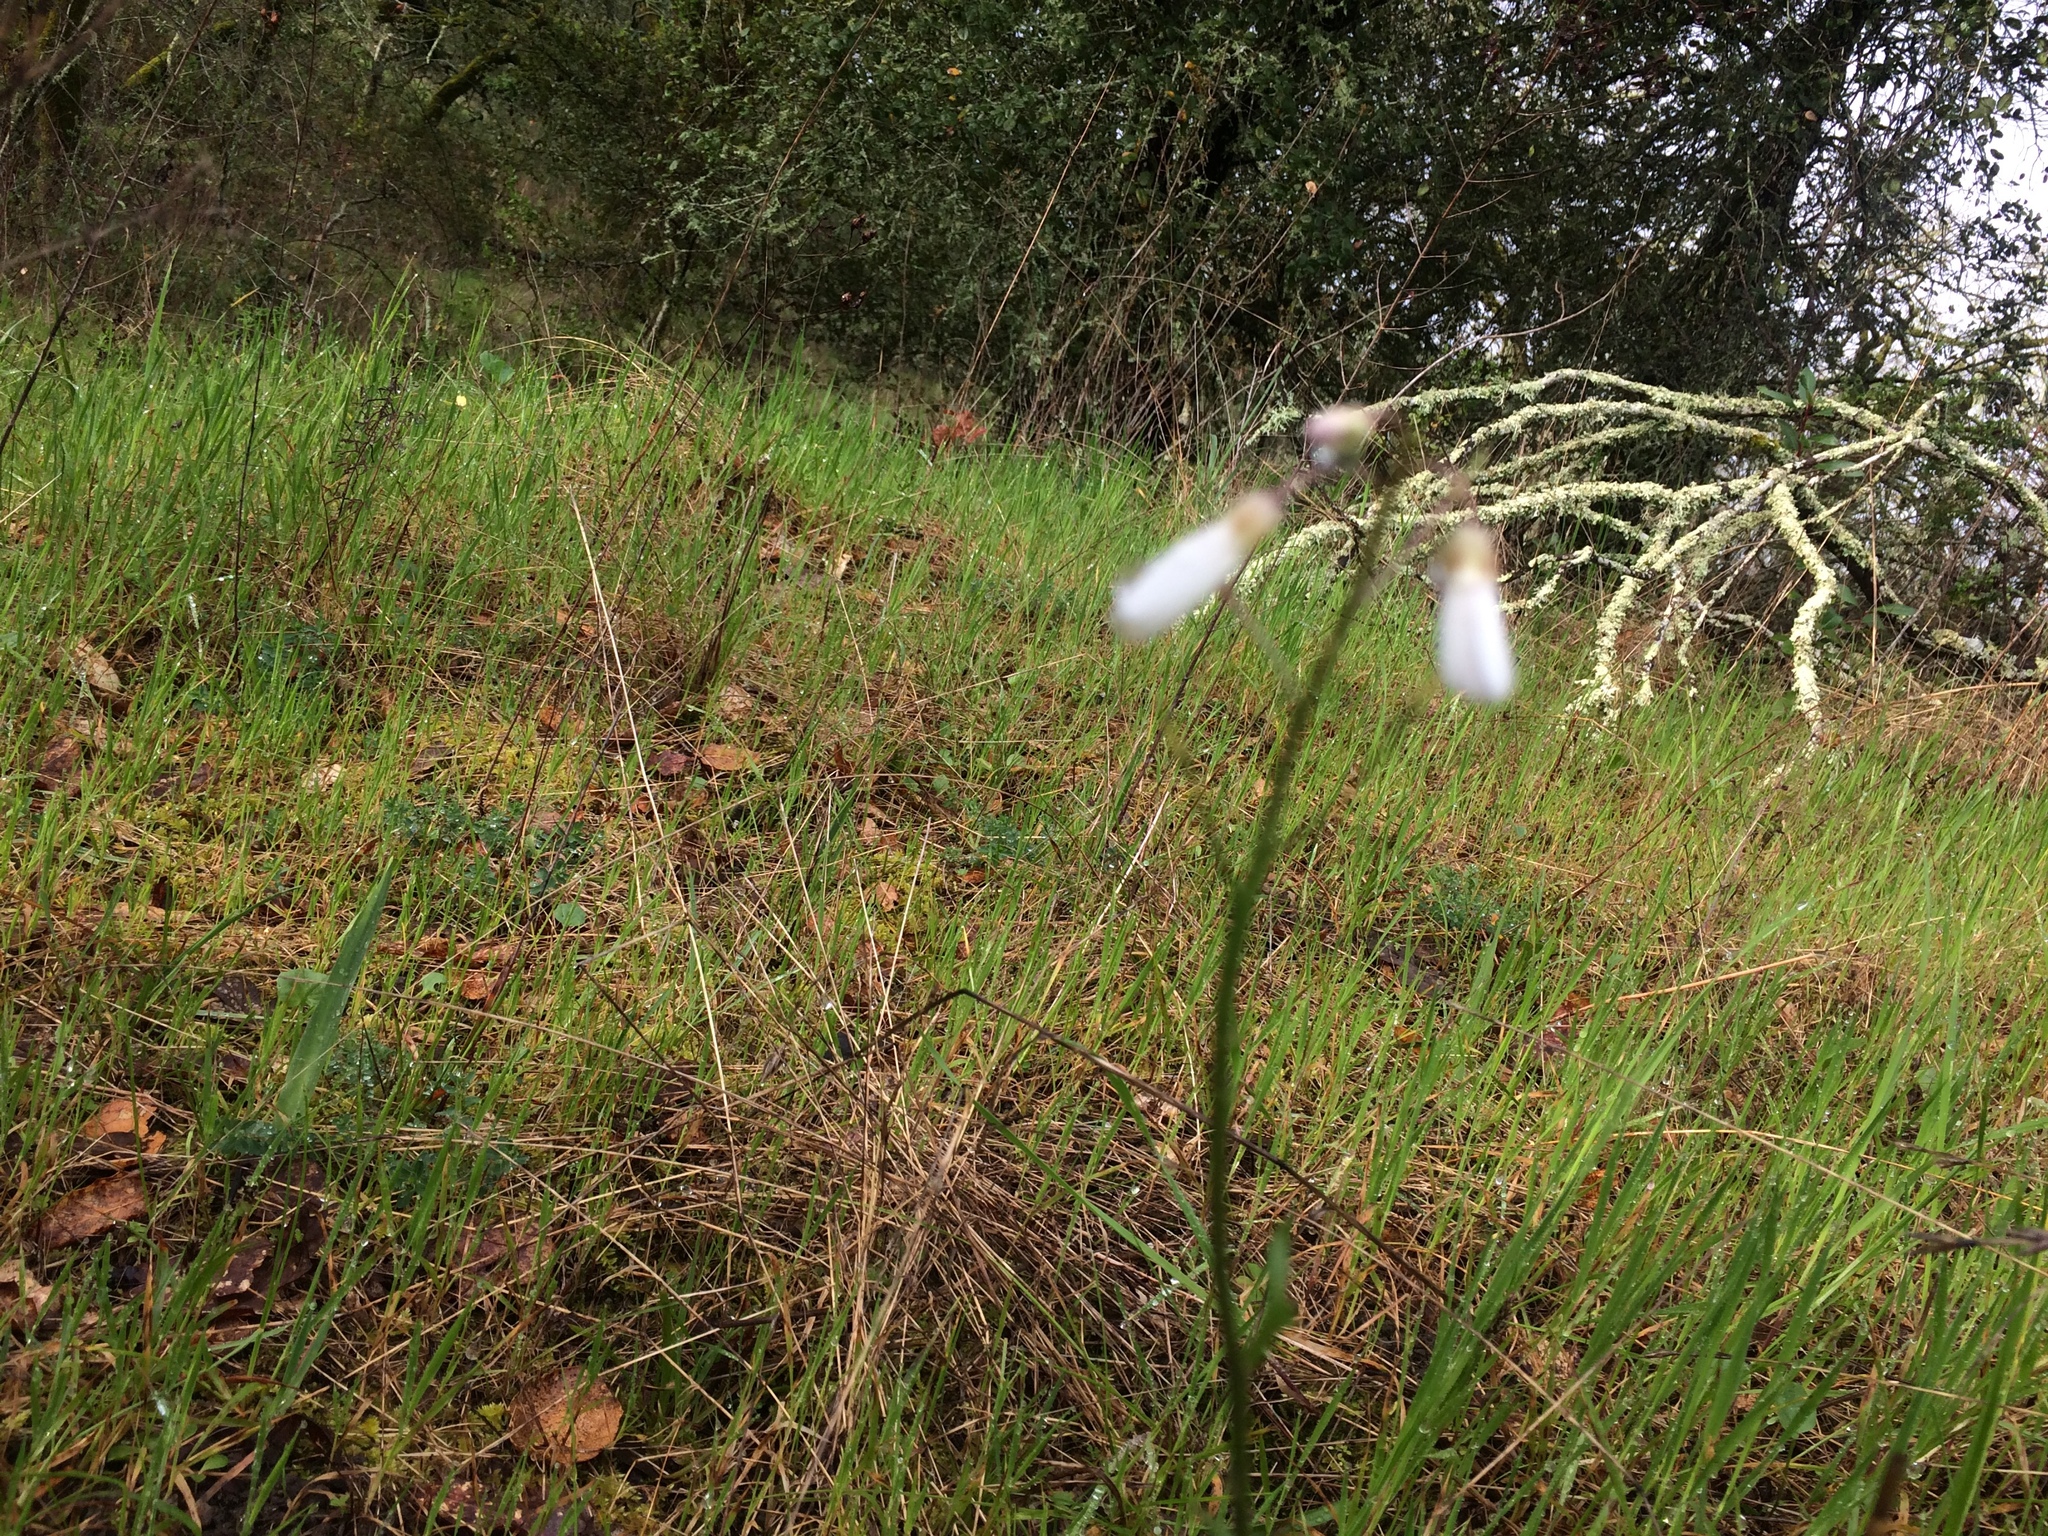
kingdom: Plantae
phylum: Tracheophyta
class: Magnoliopsida
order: Brassicales
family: Brassicaceae
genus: Cardamine
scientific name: Cardamine californica
